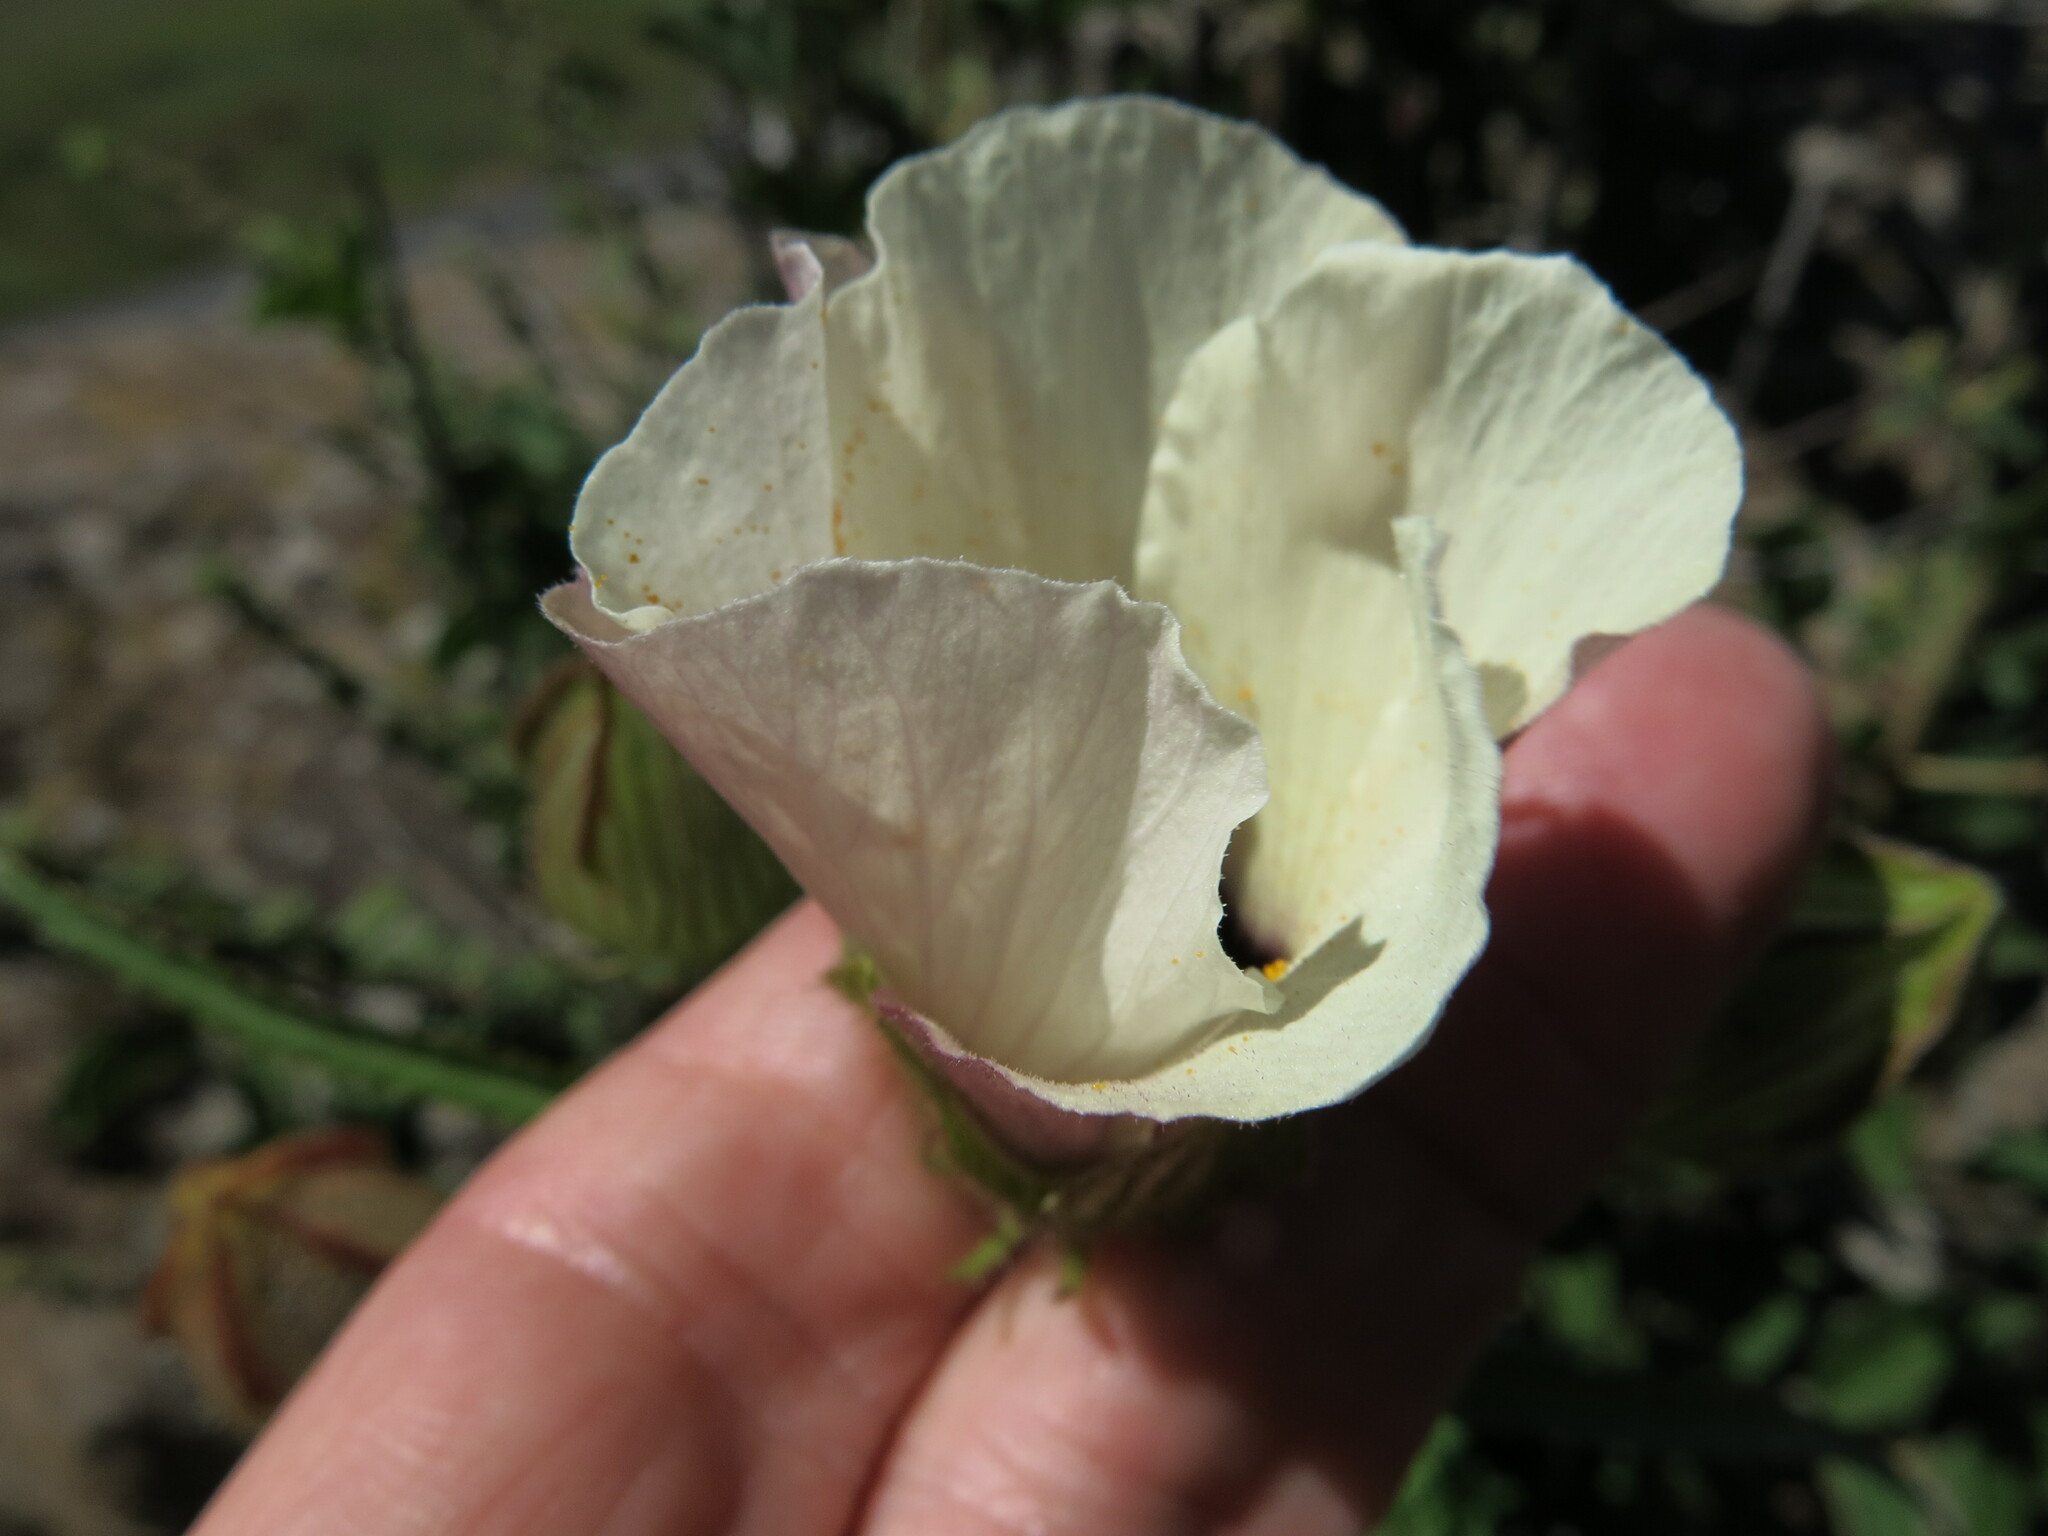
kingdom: Plantae
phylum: Tracheophyta
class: Magnoliopsida
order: Malvales
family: Malvaceae
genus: Hibiscus
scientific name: Hibiscus trionum
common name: Bladder ketmia
